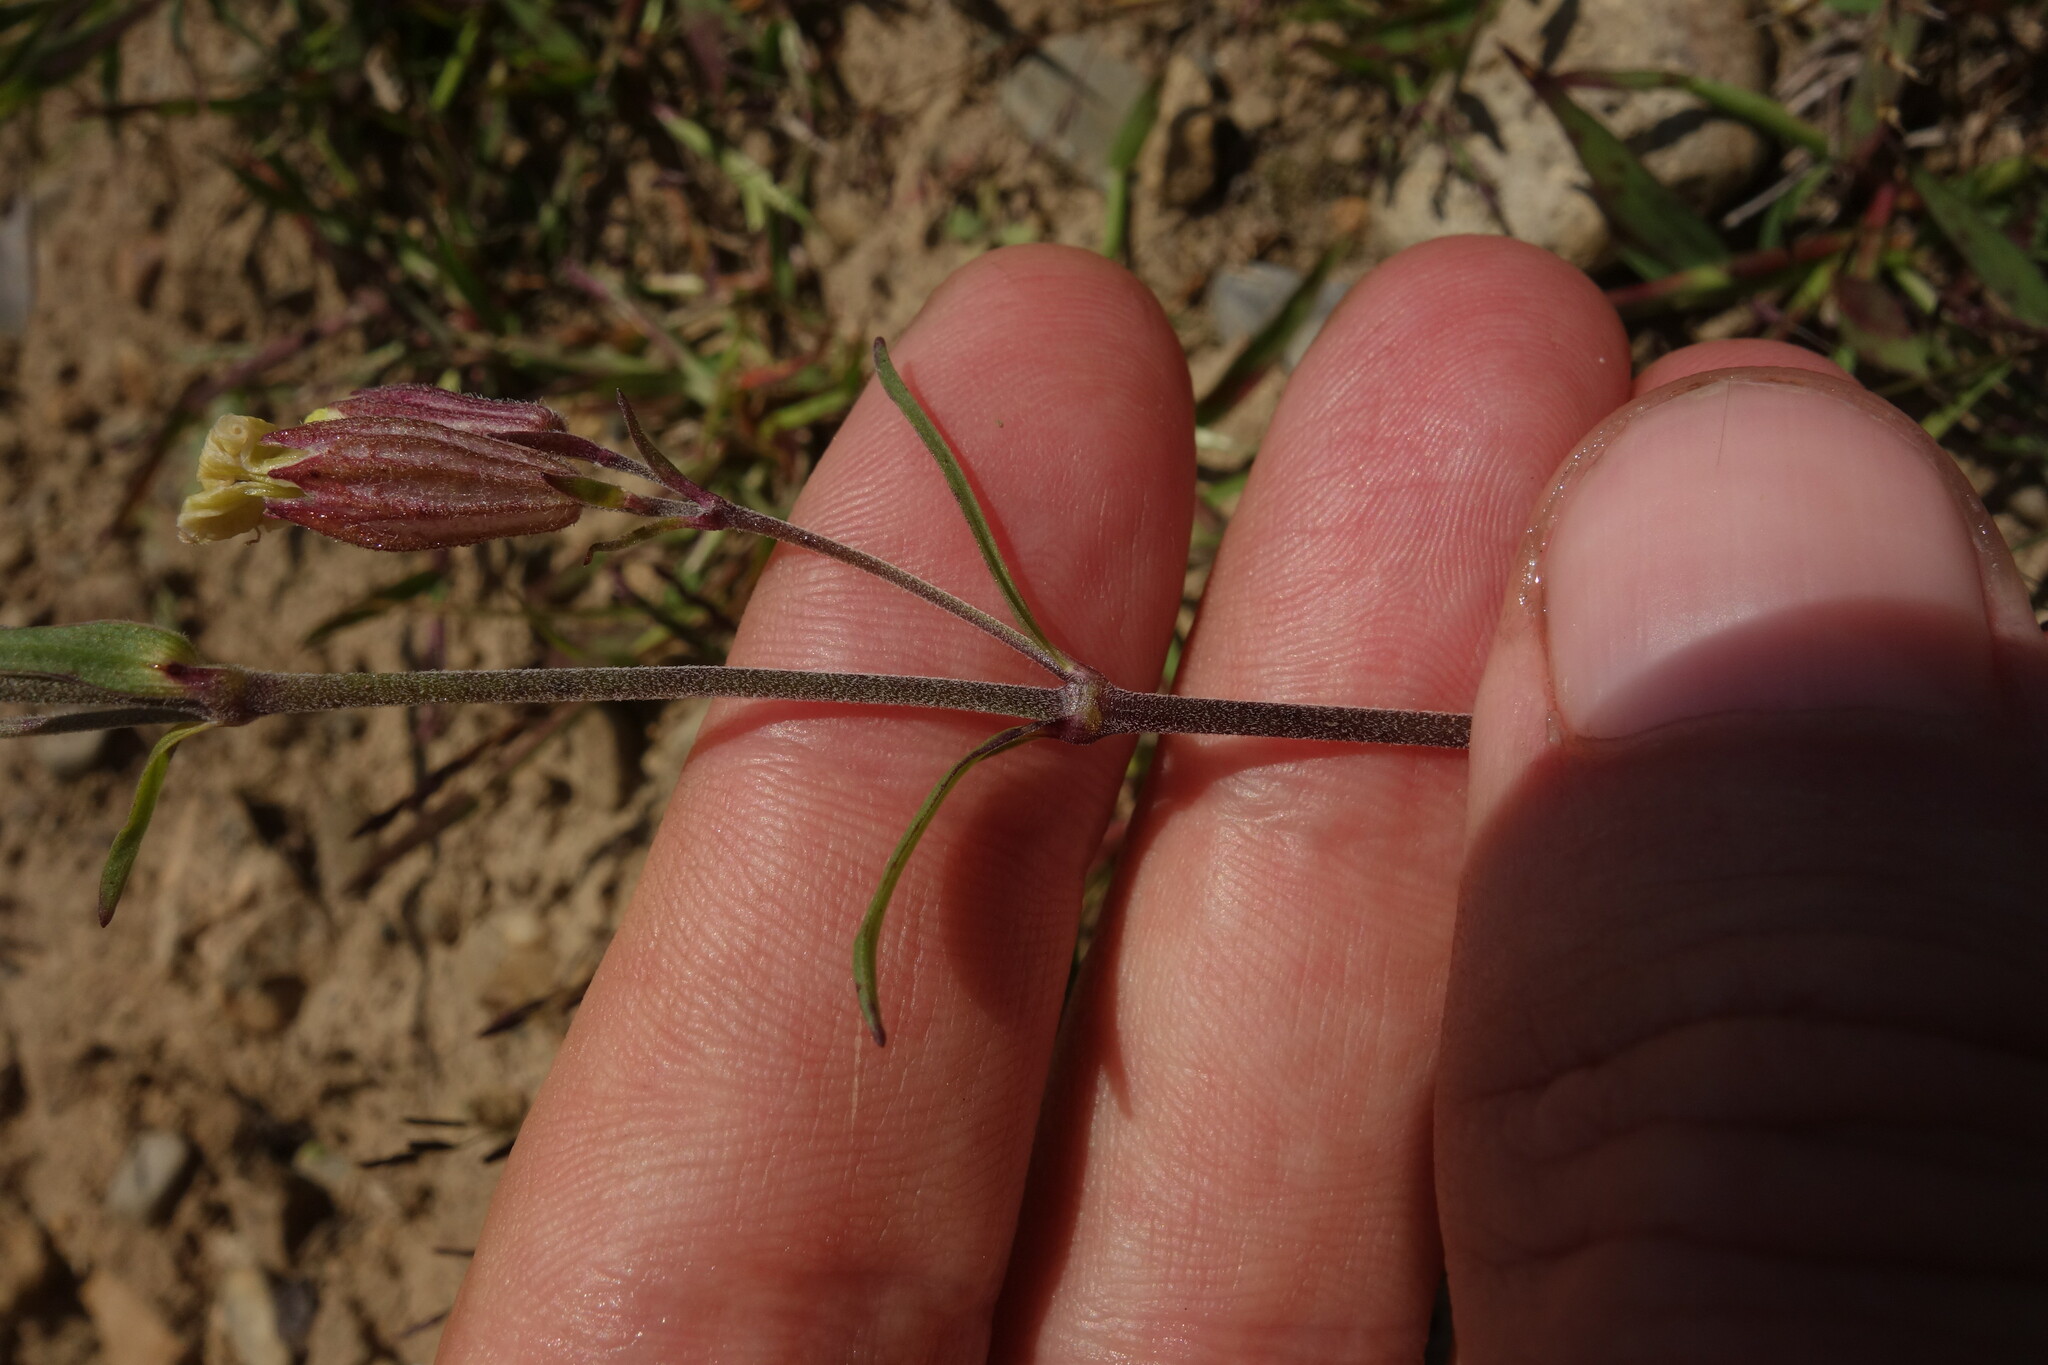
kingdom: Plantae
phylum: Tracheophyta
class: Magnoliopsida
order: Caryophyllales
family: Caryophyllaceae
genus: Silene
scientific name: Silene amoena
